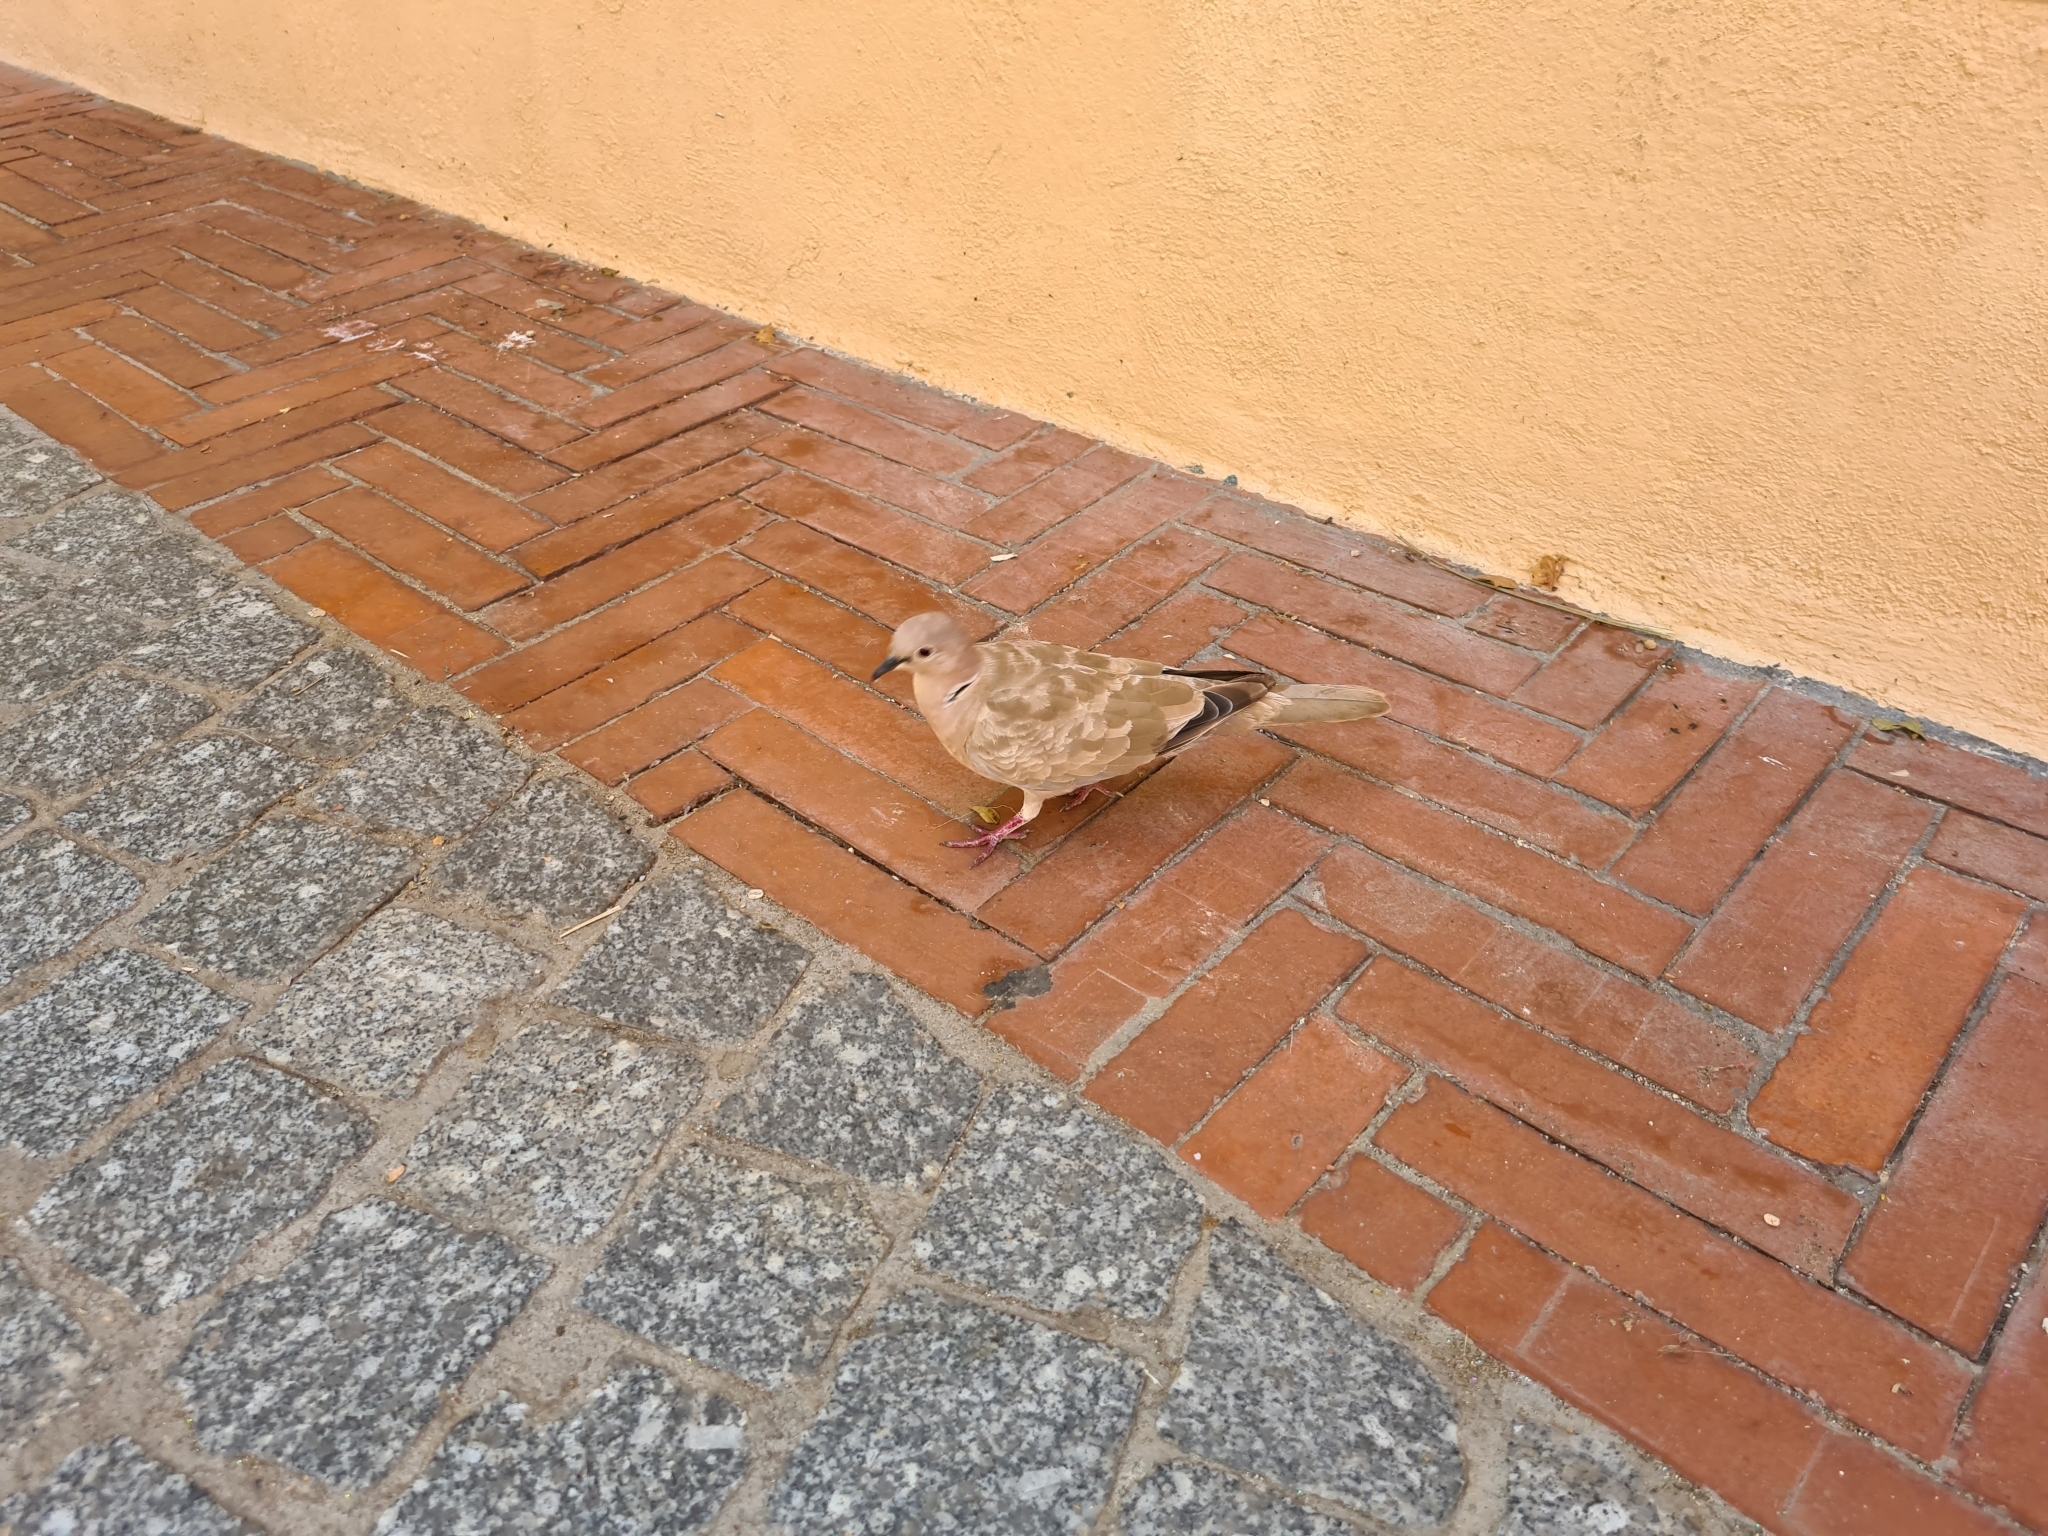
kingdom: Animalia
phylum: Chordata
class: Aves
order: Columbiformes
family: Columbidae
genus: Streptopelia
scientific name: Streptopelia decaocto
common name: Eurasian collared dove
